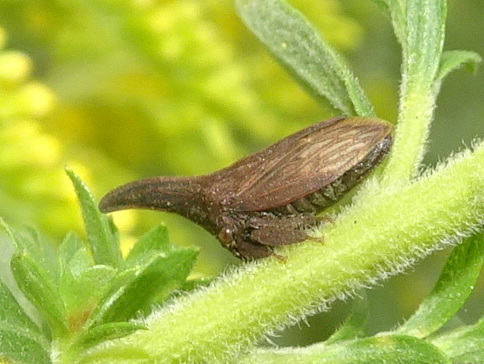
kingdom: Animalia
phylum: Arthropoda
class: Insecta
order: Hemiptera
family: Membracidae
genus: Enchenopa
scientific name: Enchenopa latipes
